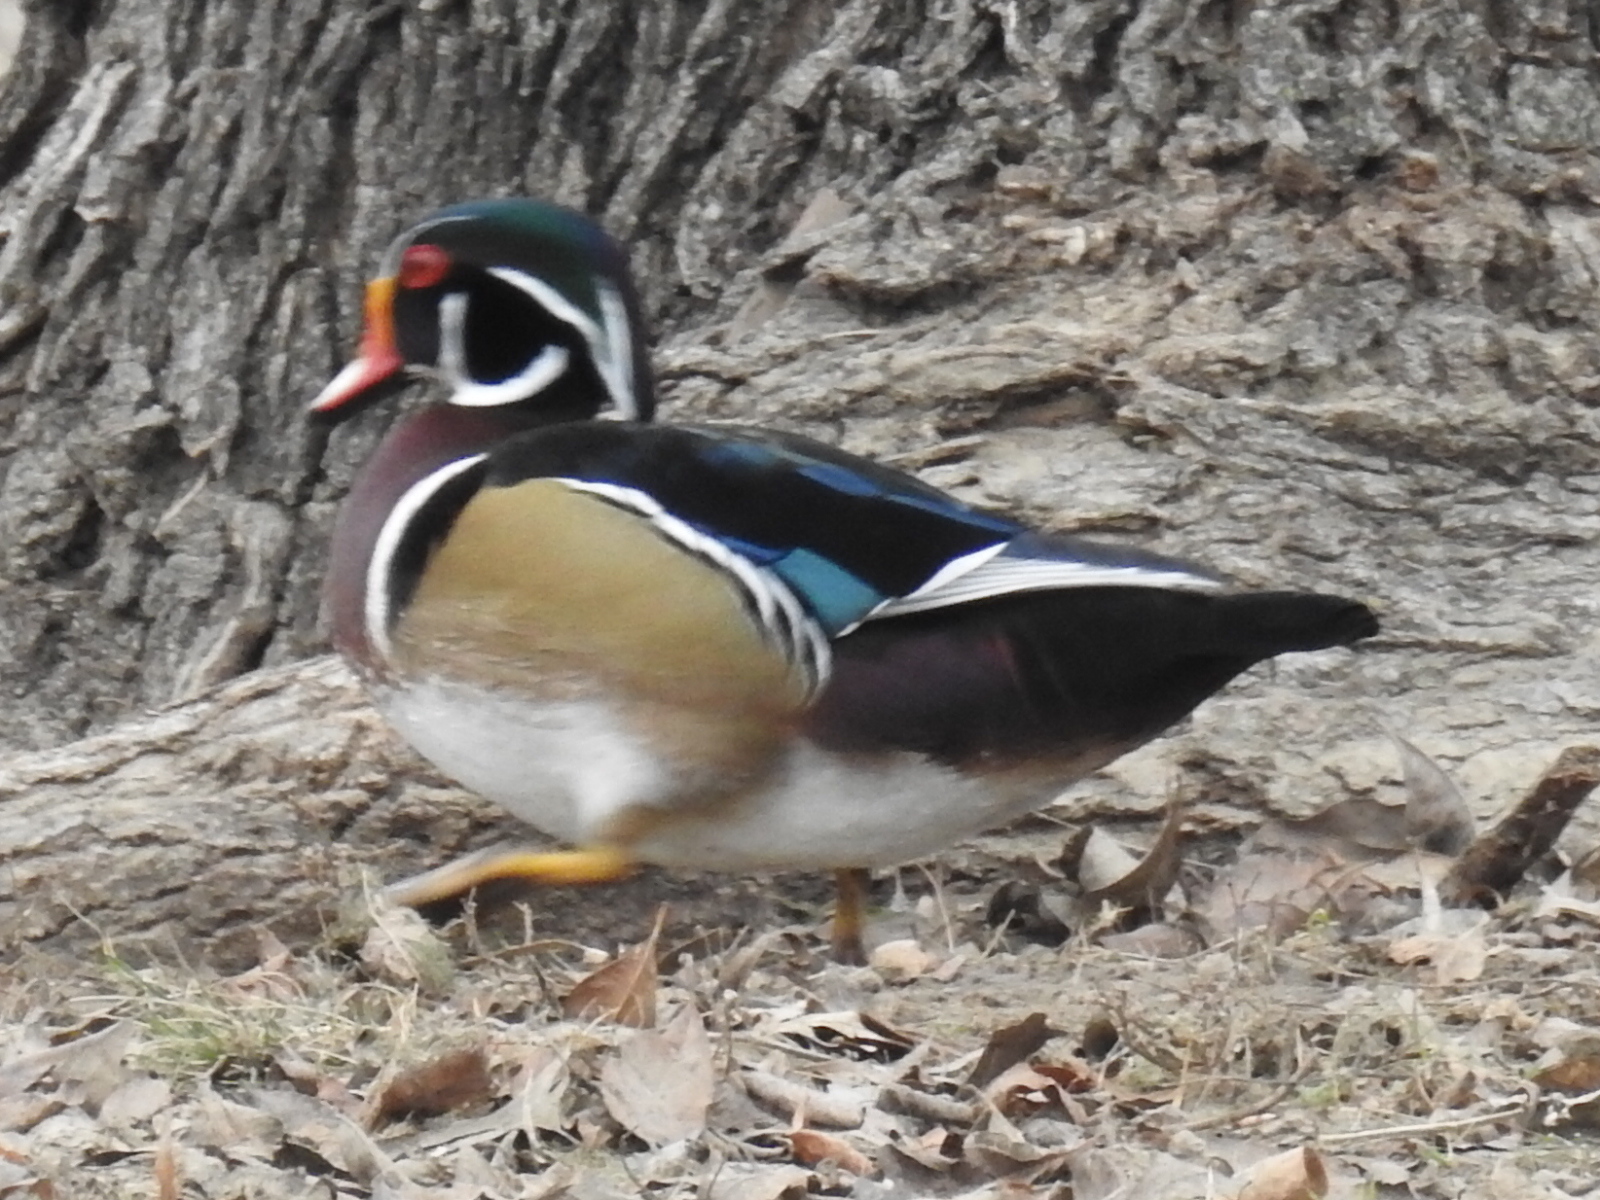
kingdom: Animalia
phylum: Chordata
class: Aves
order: Anseriformes
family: Anatidae
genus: Aix
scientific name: Aix sponsa
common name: Wood duck
